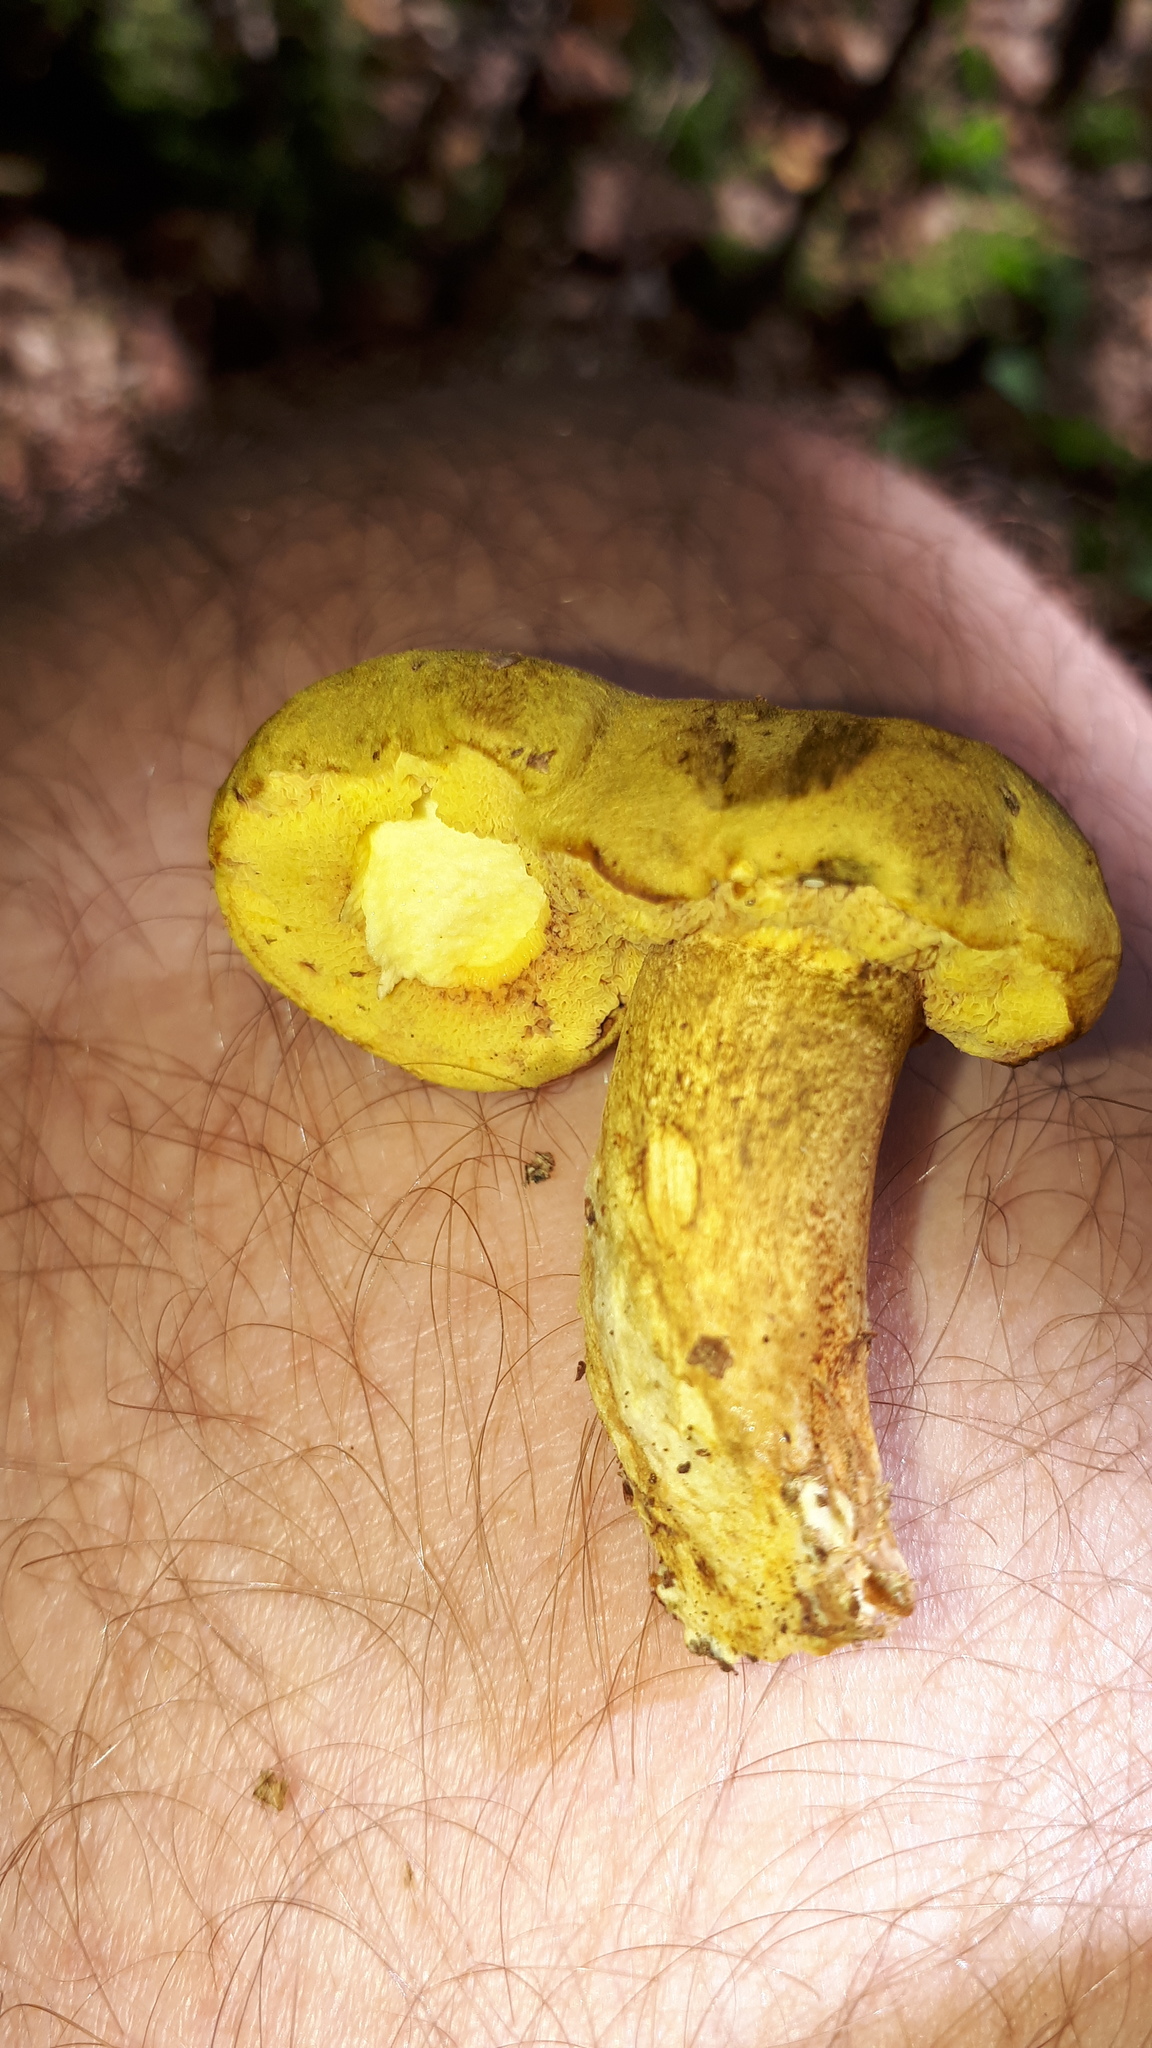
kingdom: Fungi
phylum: Basidiomycota
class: Agaricomycetes
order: Boletales
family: Boletaceae
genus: Pseudoboletus
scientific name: Pseudoboletus parasiticus
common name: Parasitic bolete
